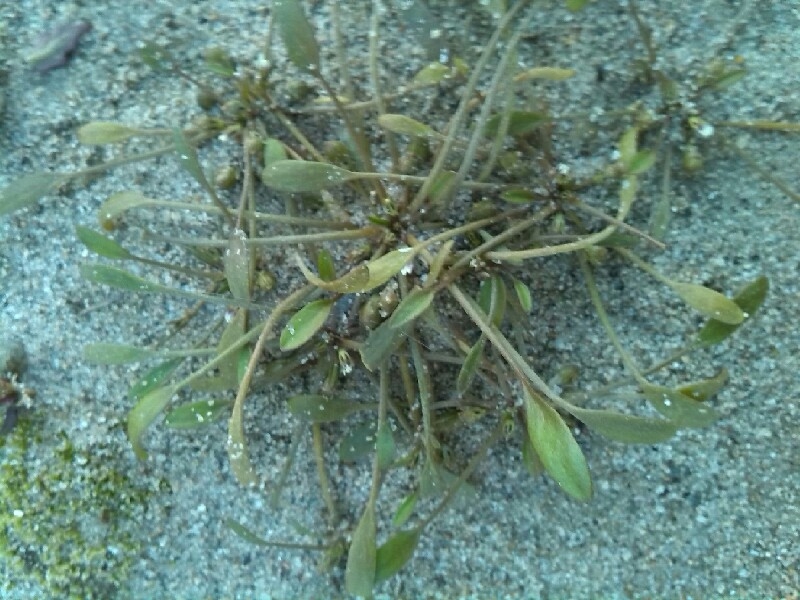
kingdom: Plantae
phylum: Tracheophyta
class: Magnoliopsida
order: Lamiales
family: Scrophulariaceae
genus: Limosella
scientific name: Limosella aquatica
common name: Mudwort
